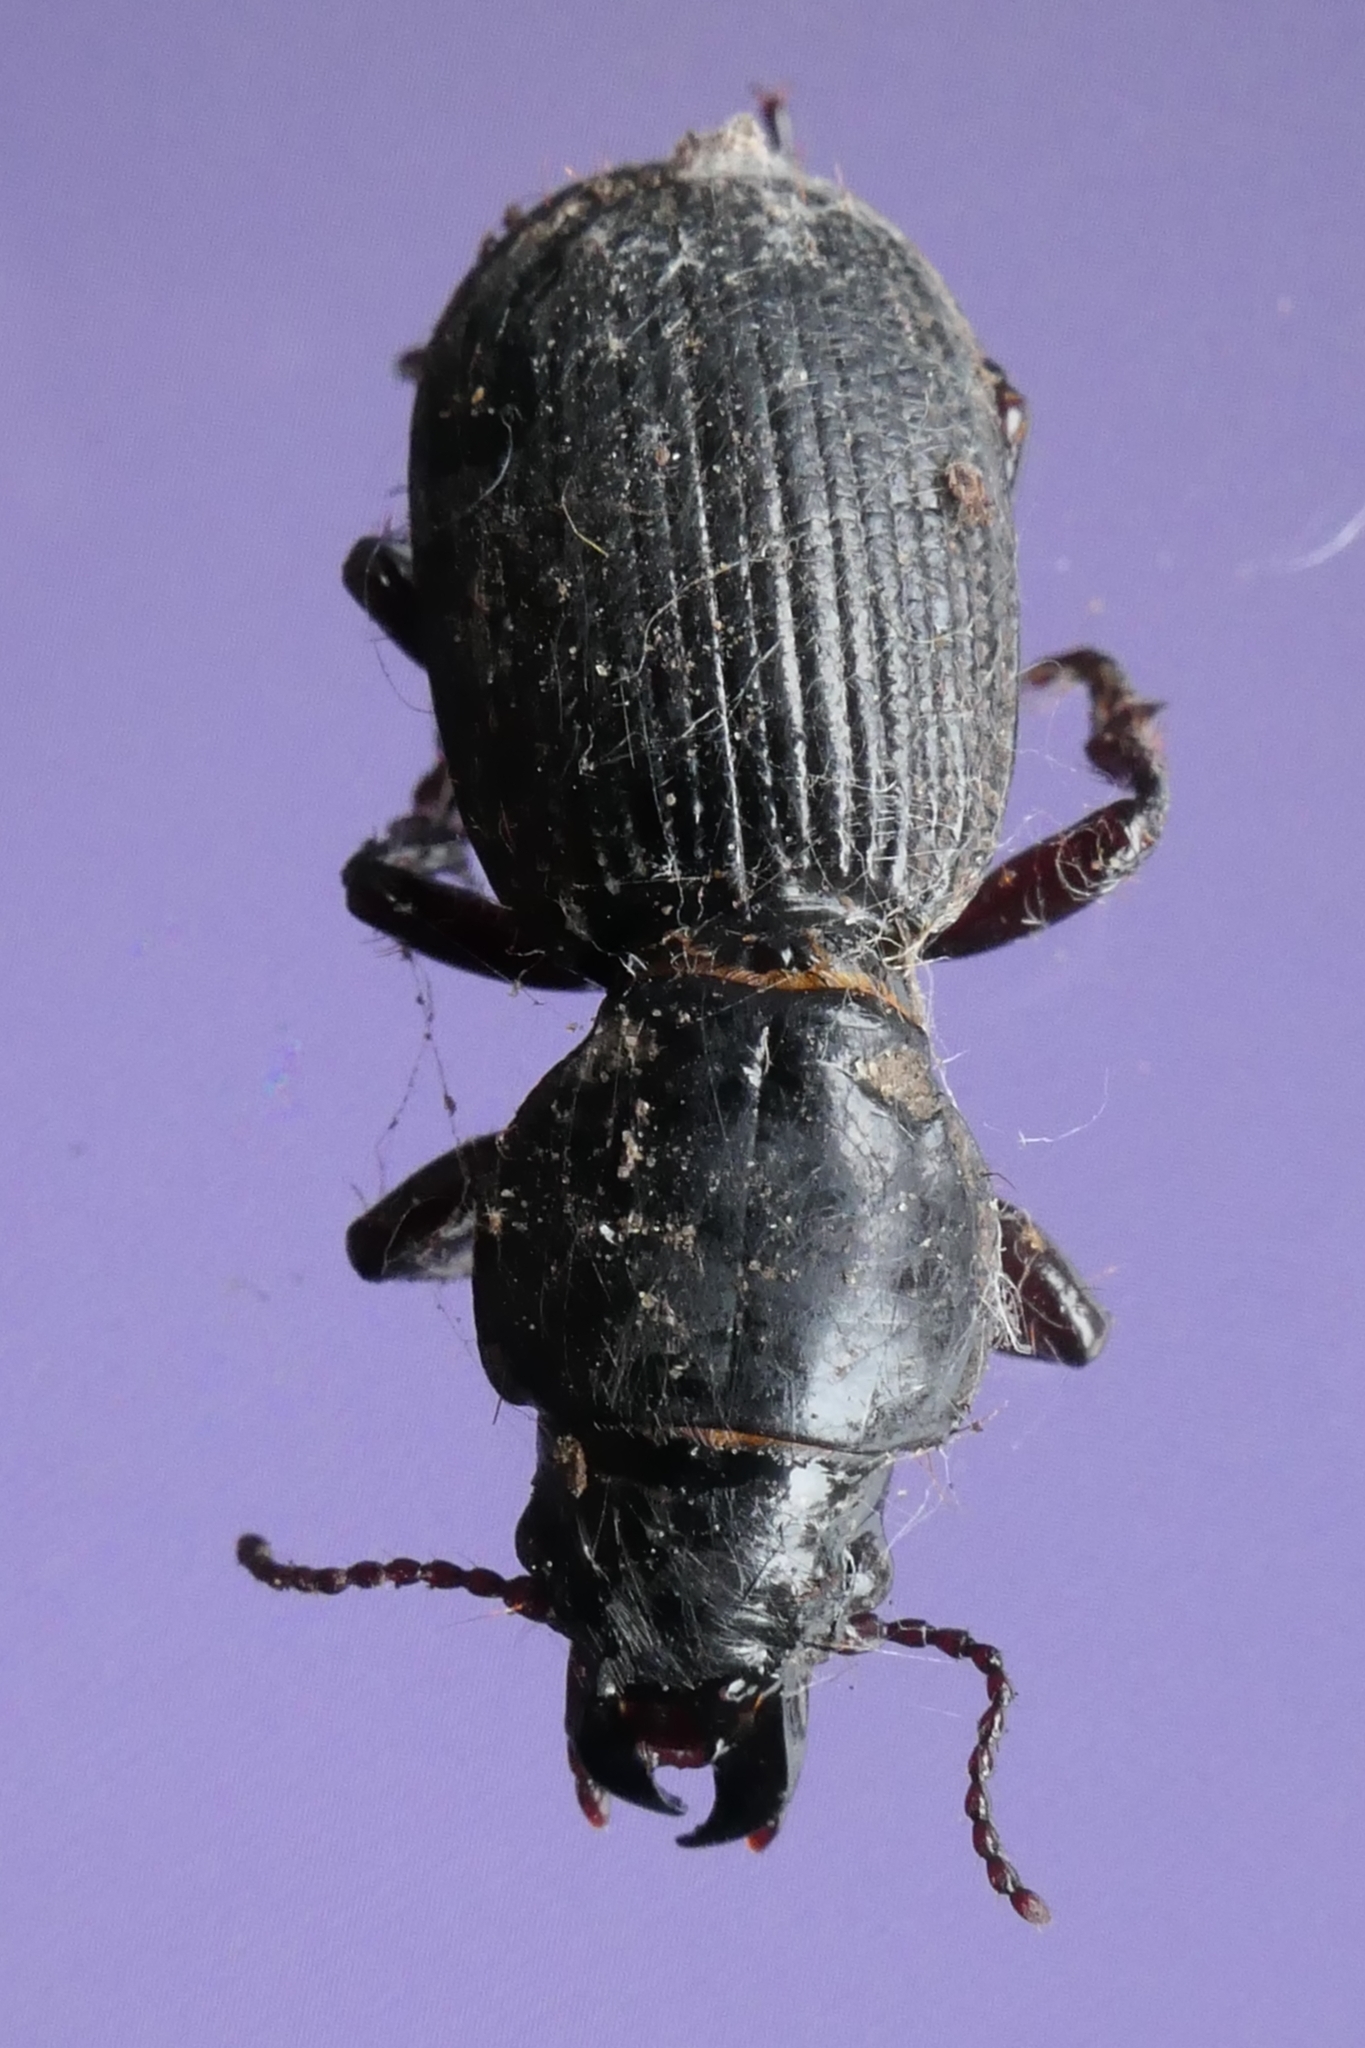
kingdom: Animalia
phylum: Arthropoda
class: Insecta
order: Coleoptera
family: Carabidae
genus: Mecodema
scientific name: Mecodema moniliferum
